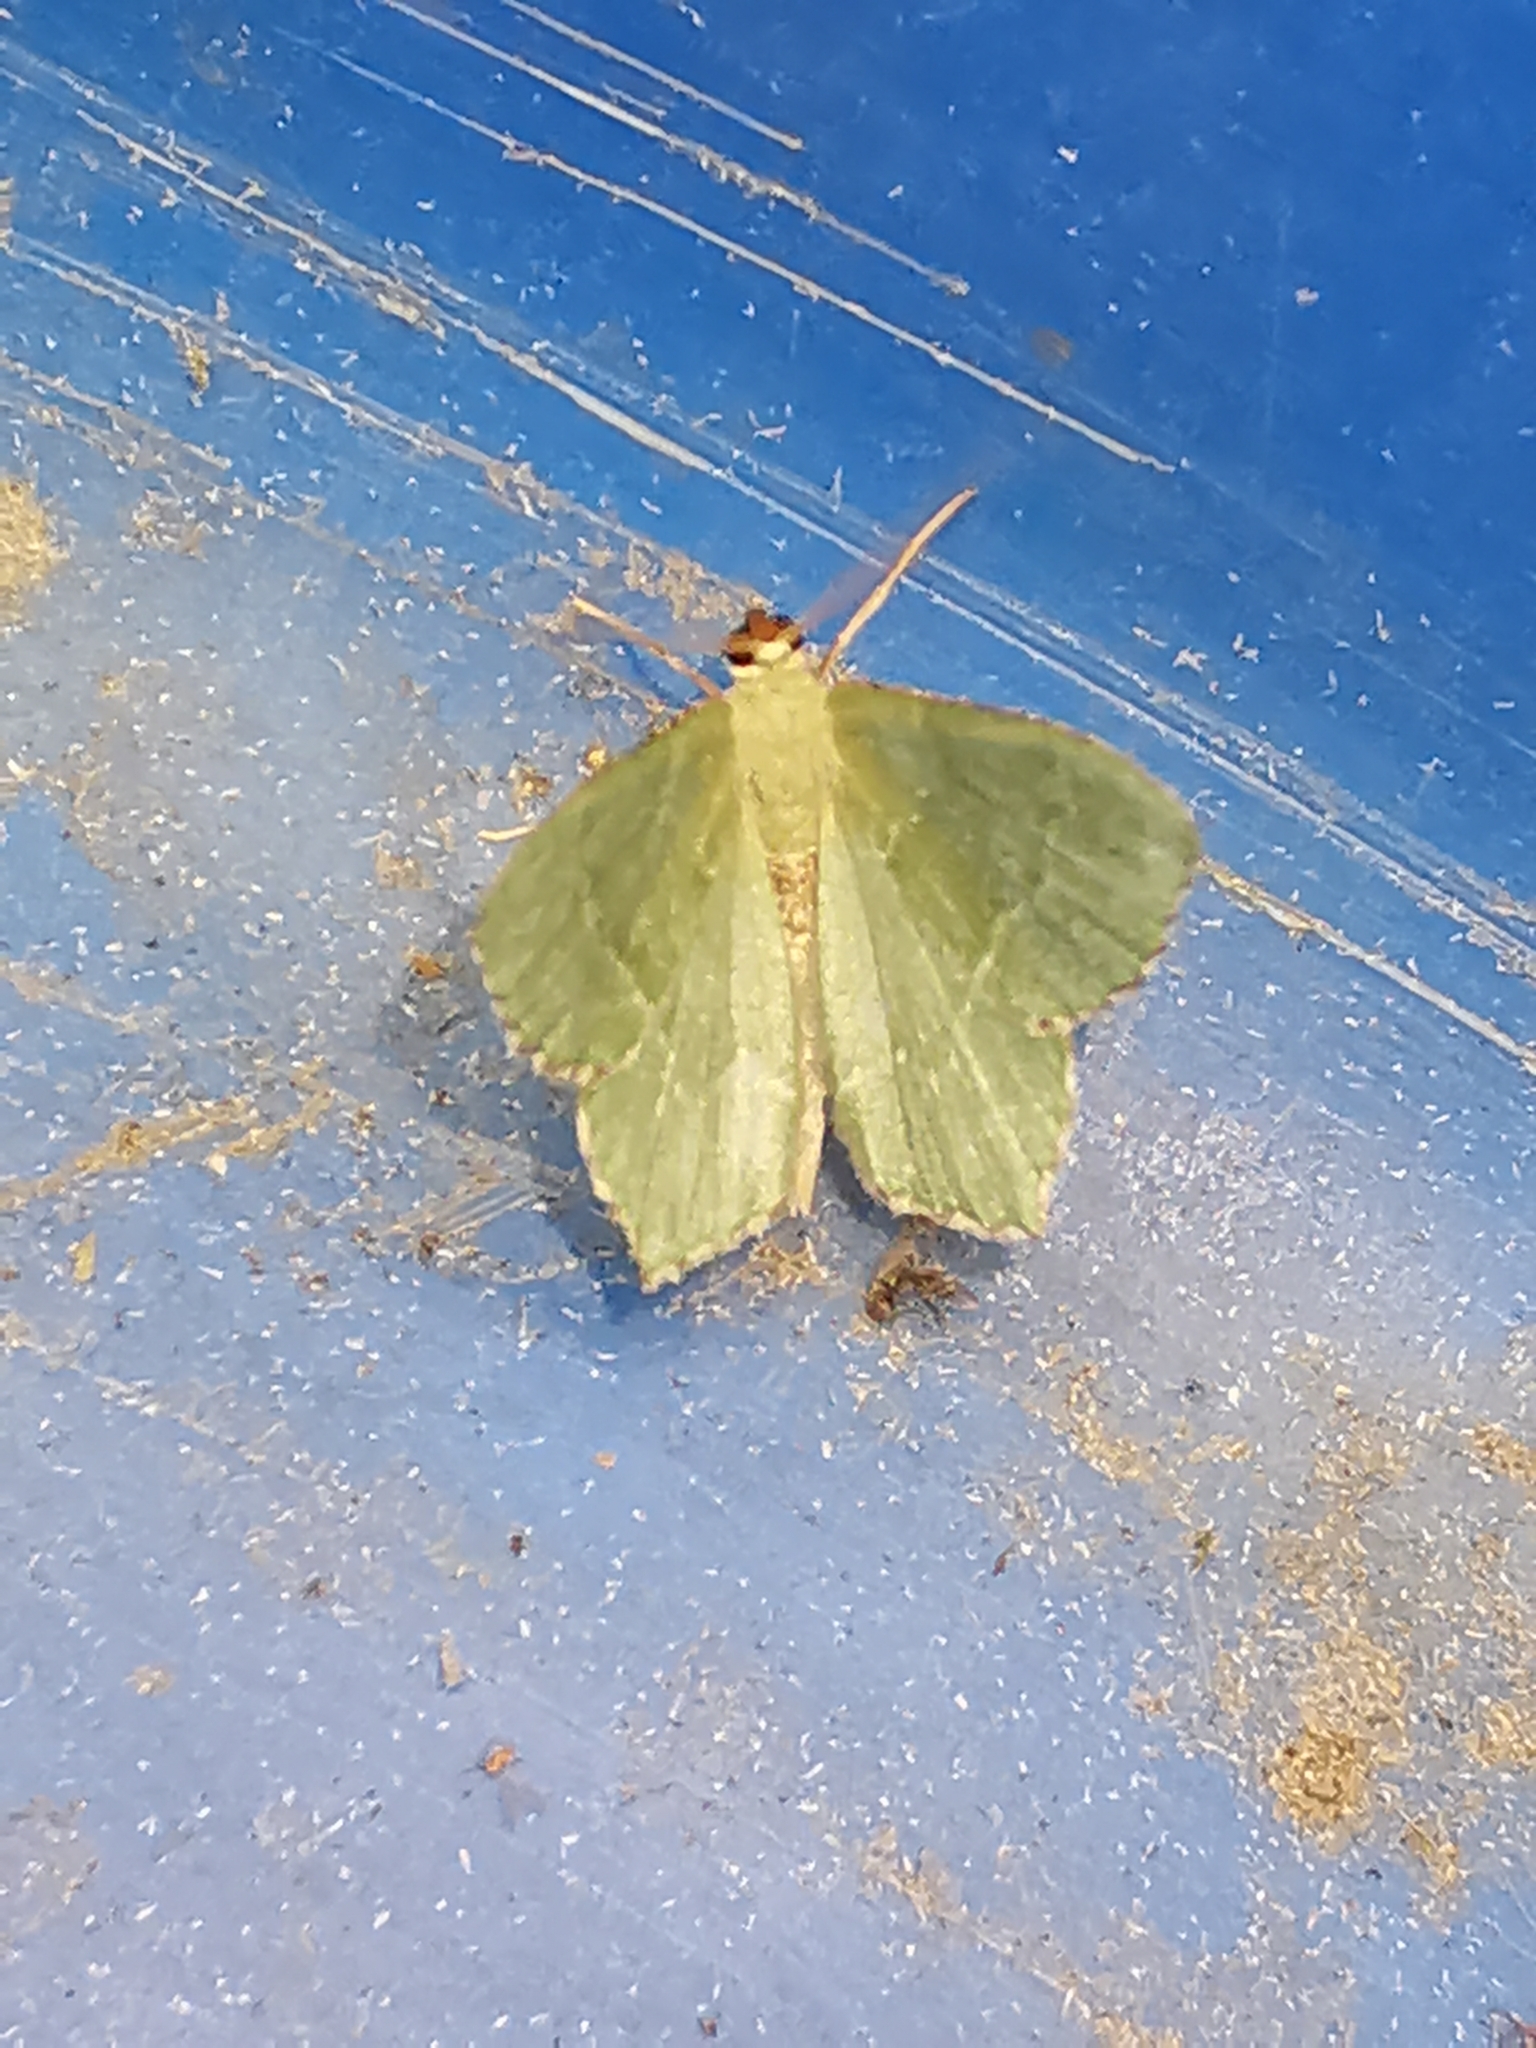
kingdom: Animalia
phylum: Arthropoda
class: Insecta
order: Lepidoptera
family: Geometridae
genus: Hemithea
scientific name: Hemithea aestivaria
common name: Common emerald
